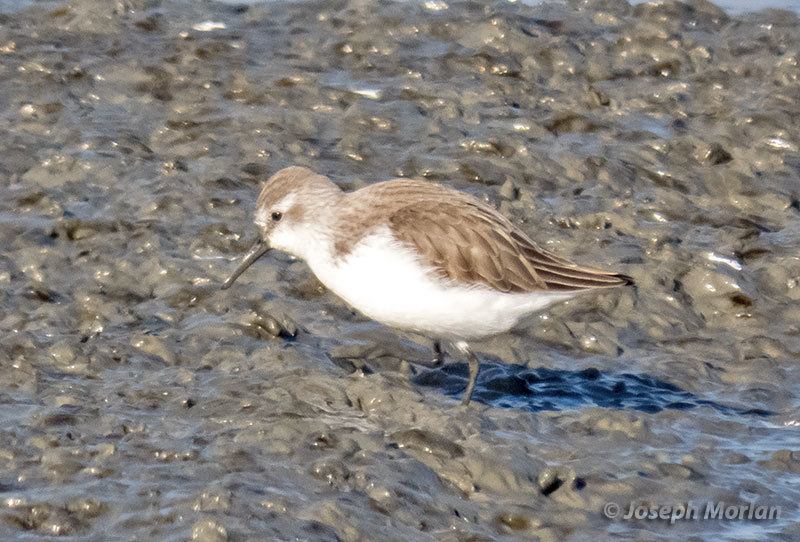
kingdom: Animalia
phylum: Chordata
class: Aves
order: Charadriiformes
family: Scolopacidae
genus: Calidris
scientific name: Calidris mauri
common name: Western sandpiper
